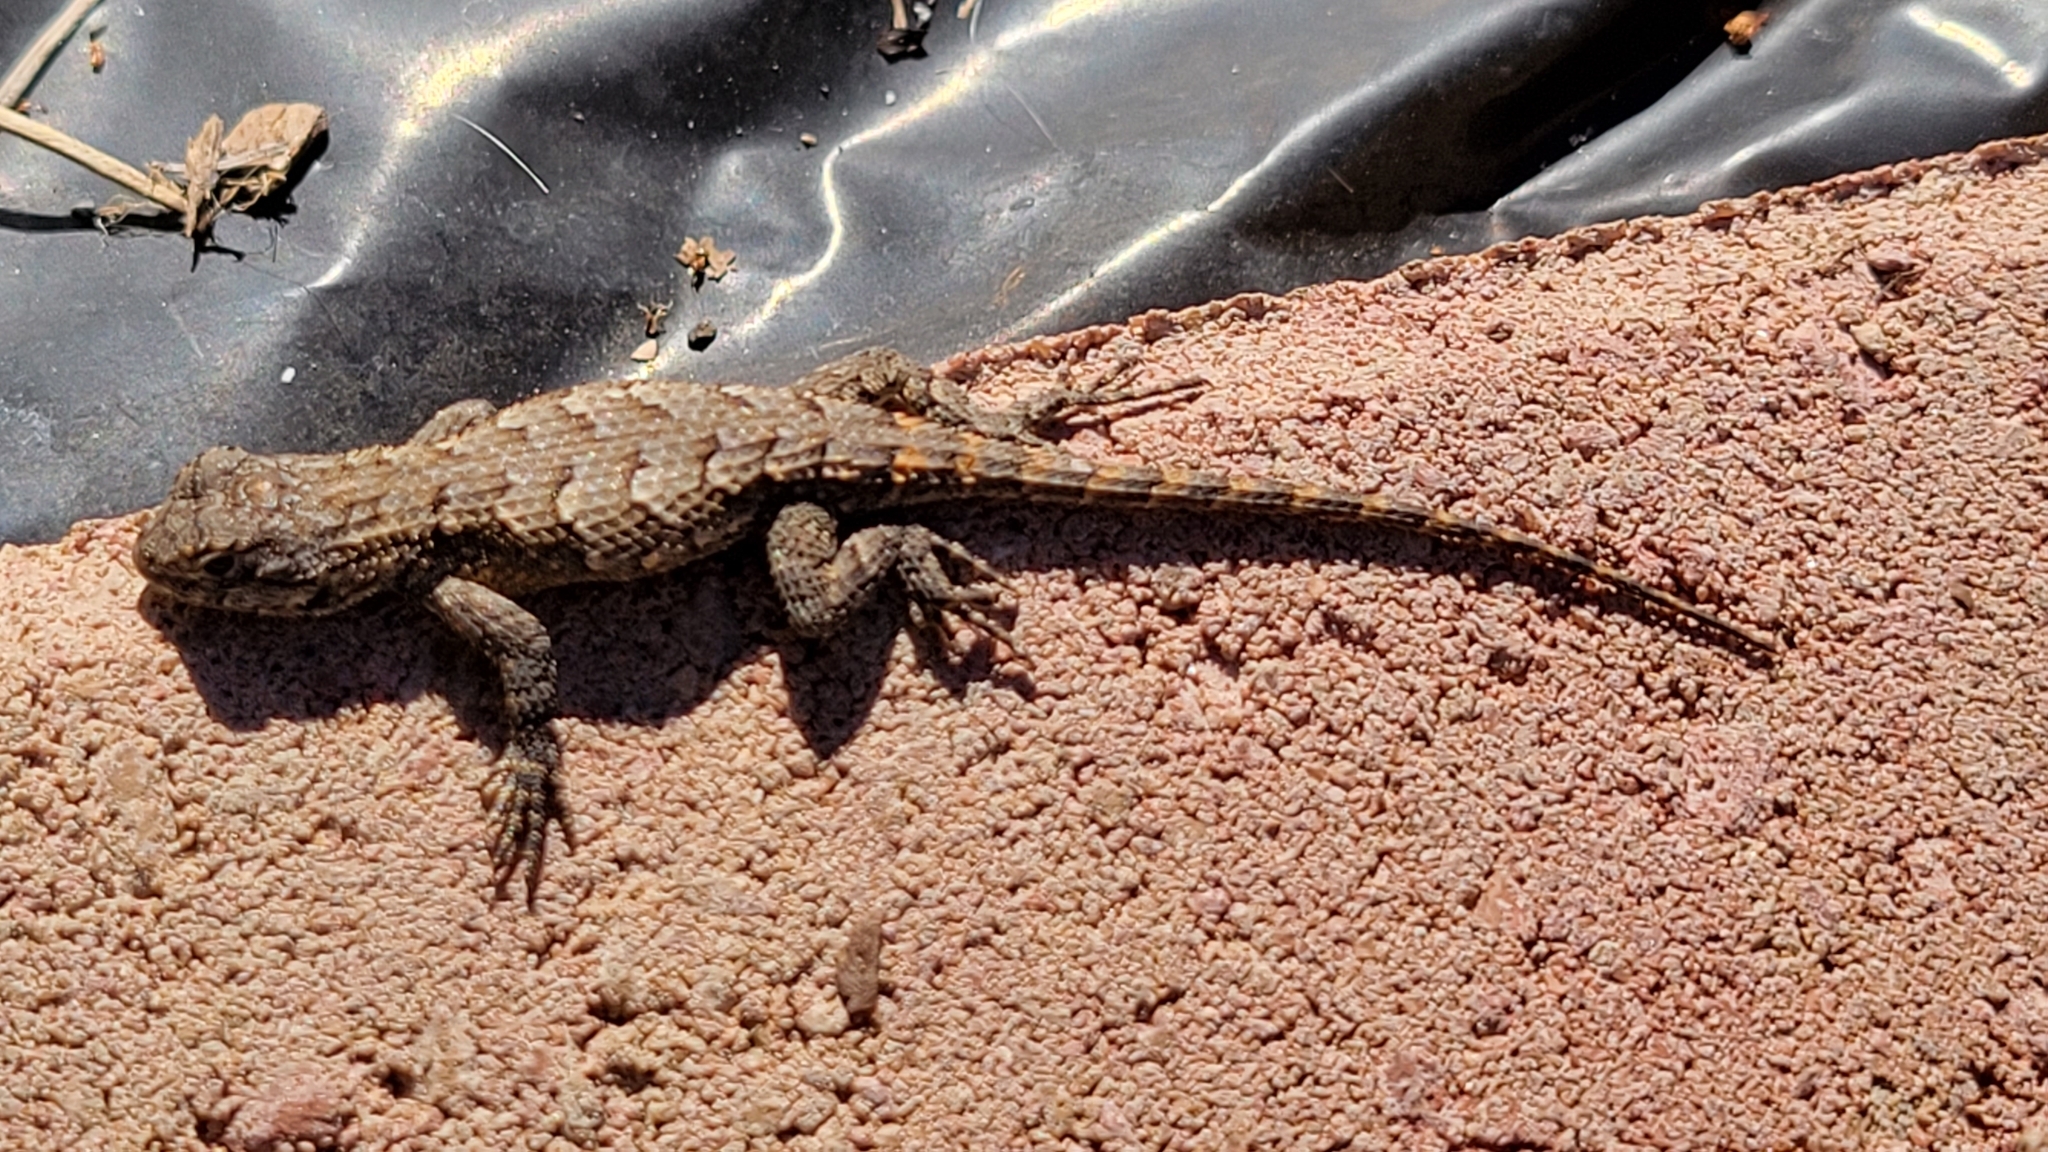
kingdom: Animalia
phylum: Chordata
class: Squamata
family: Phrynosomatidae
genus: Sceloporus
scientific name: Sceloporus undulatus
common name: Eastern fence lizard
